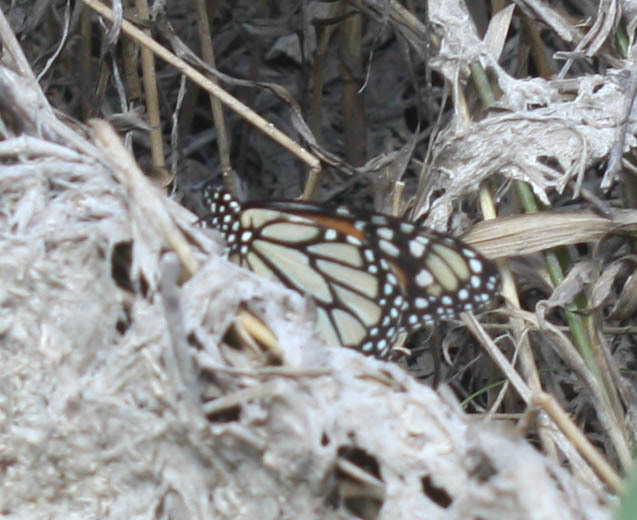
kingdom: Animalia
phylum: Arthropoda
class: Insecta
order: Lepidoptera
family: Nymphalidae
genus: Danaus
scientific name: Danaus plexippus
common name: Monarch
